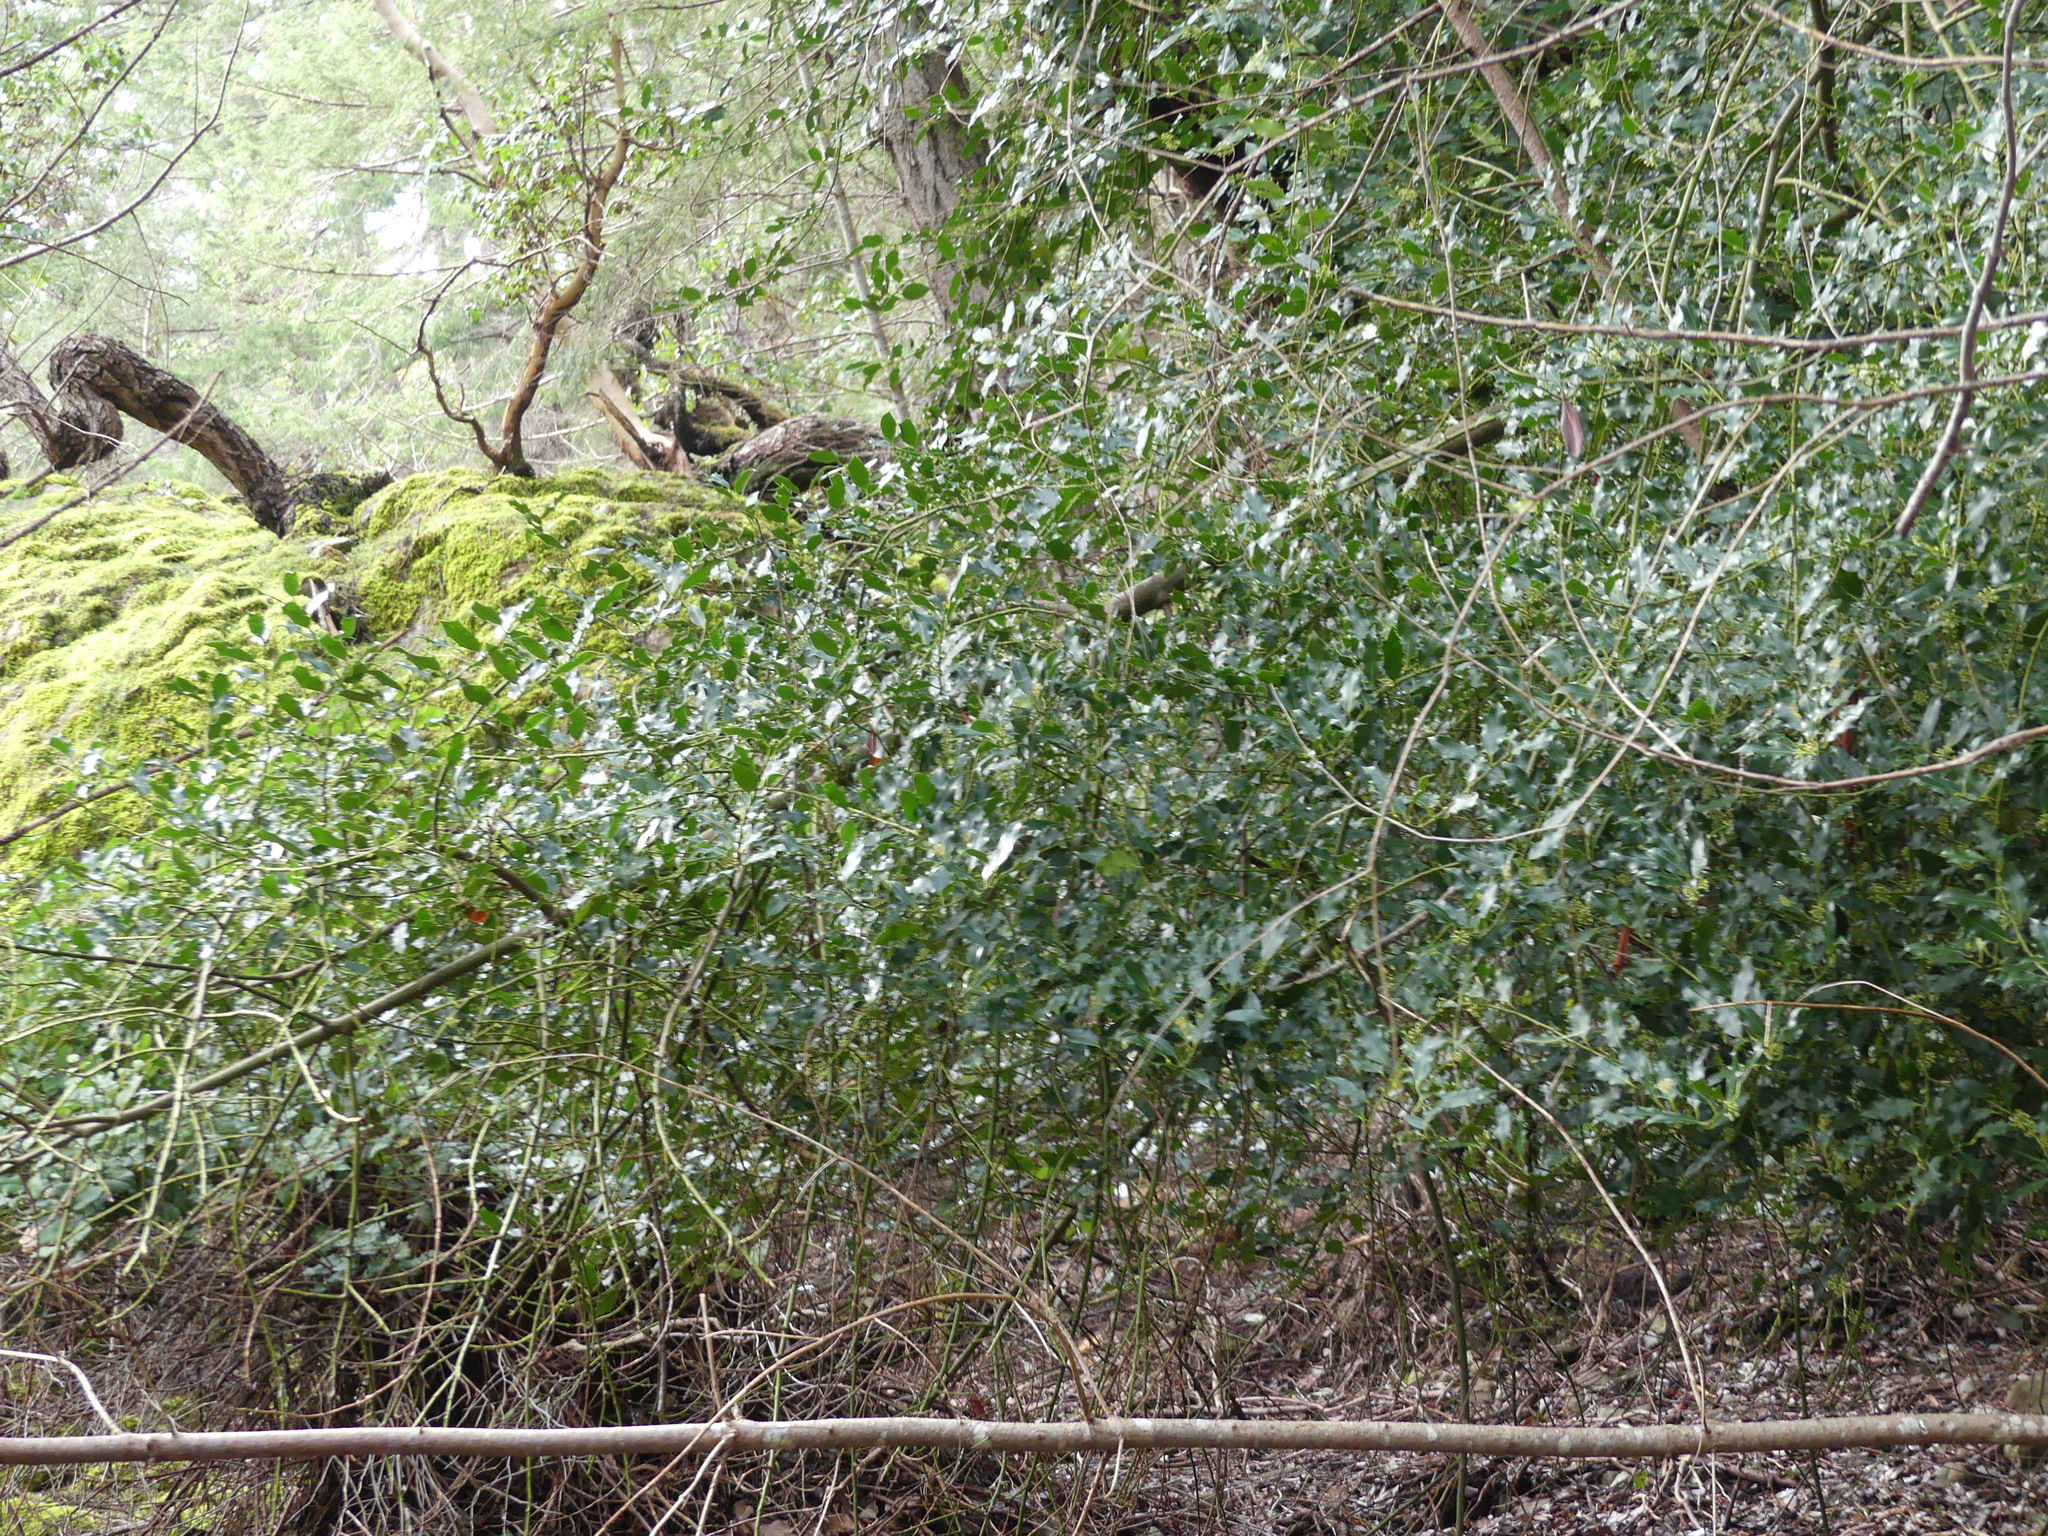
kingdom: Plantae
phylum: Tracheophyta
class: Magnoliopsida
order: Aquifoliales
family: Aquifoliaceae
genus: Ilex
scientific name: Ilex aquifolium
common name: English holly
